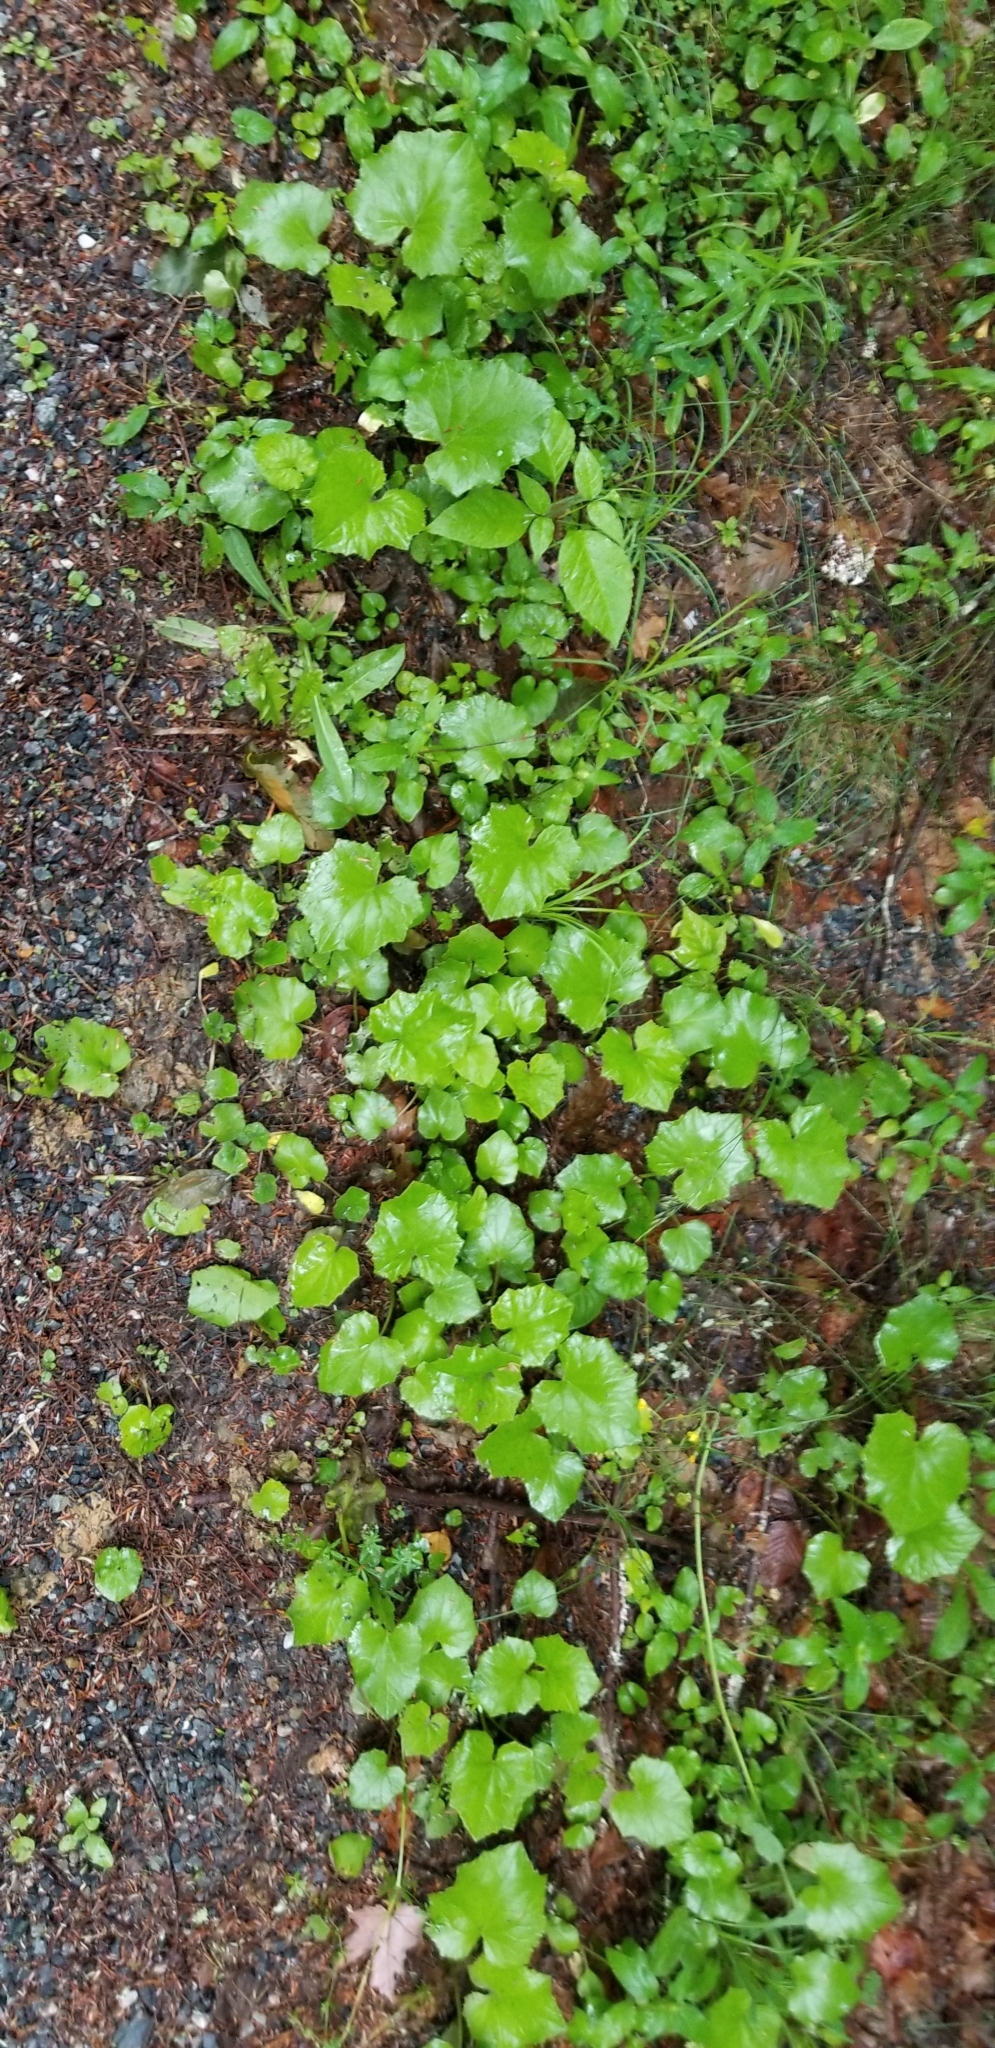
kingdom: Plantae
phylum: Tracheophyta
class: Magnoliopsida
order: Asterales
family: Asteraceae
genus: Tussilago
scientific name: Tussilago farfara
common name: Coltsfoot
